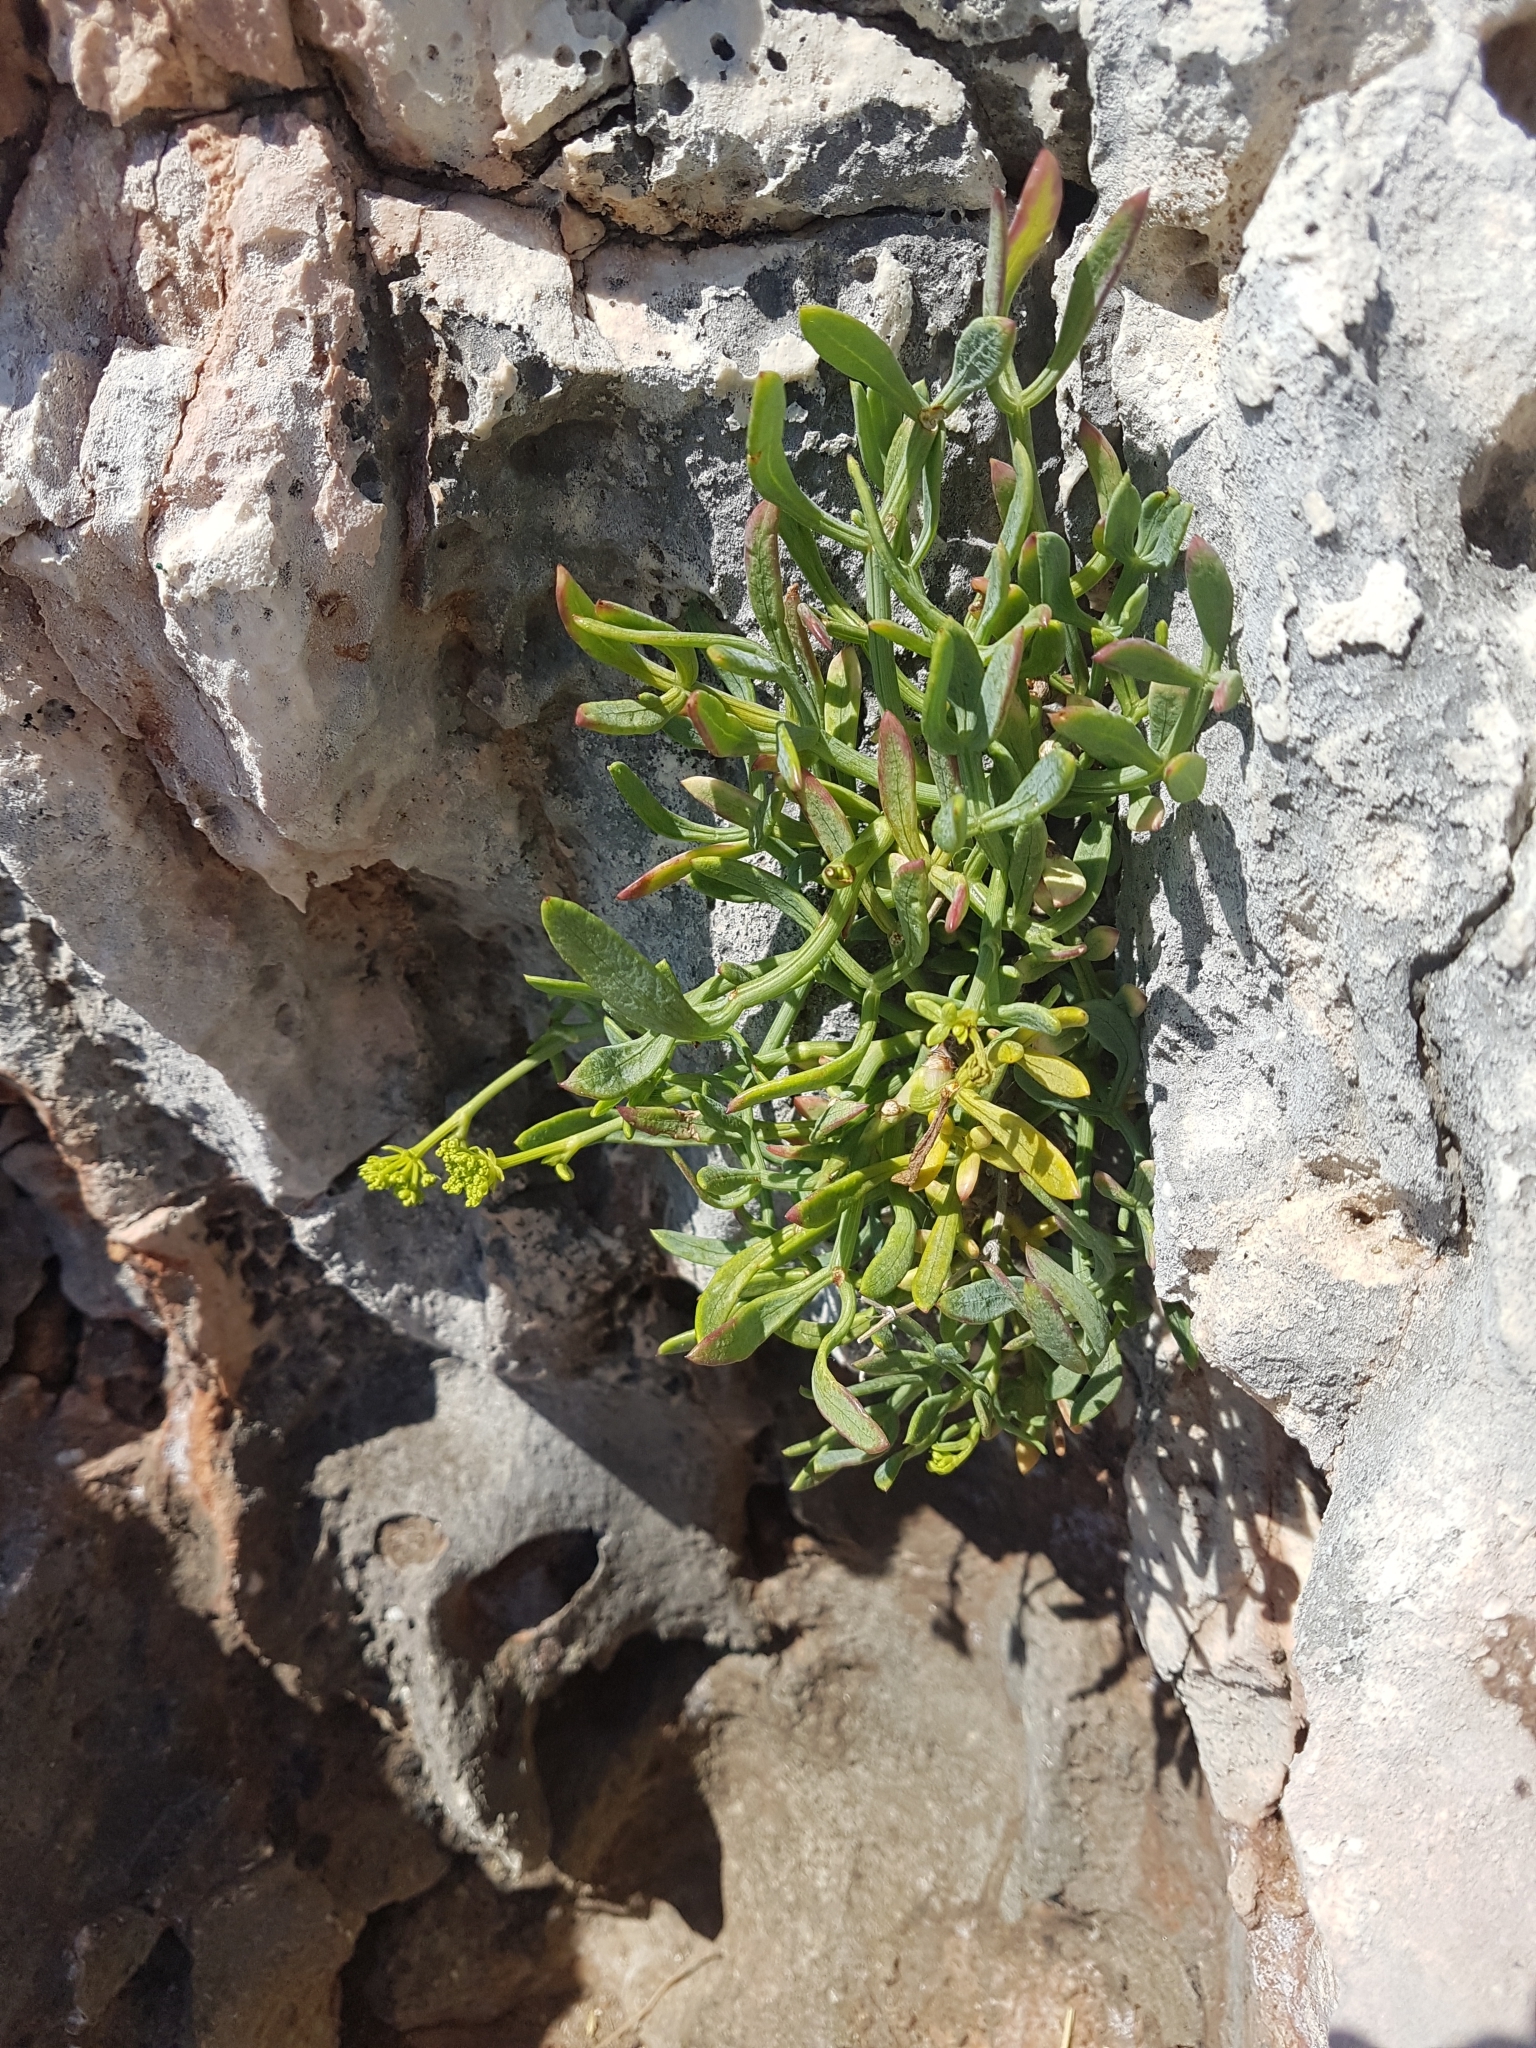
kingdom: Plantae
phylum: Tracheophyta
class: Magnoliopsida
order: Apiales
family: Apiaceae
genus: Crithmum
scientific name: Crithmum maritimum
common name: Rock samphire
